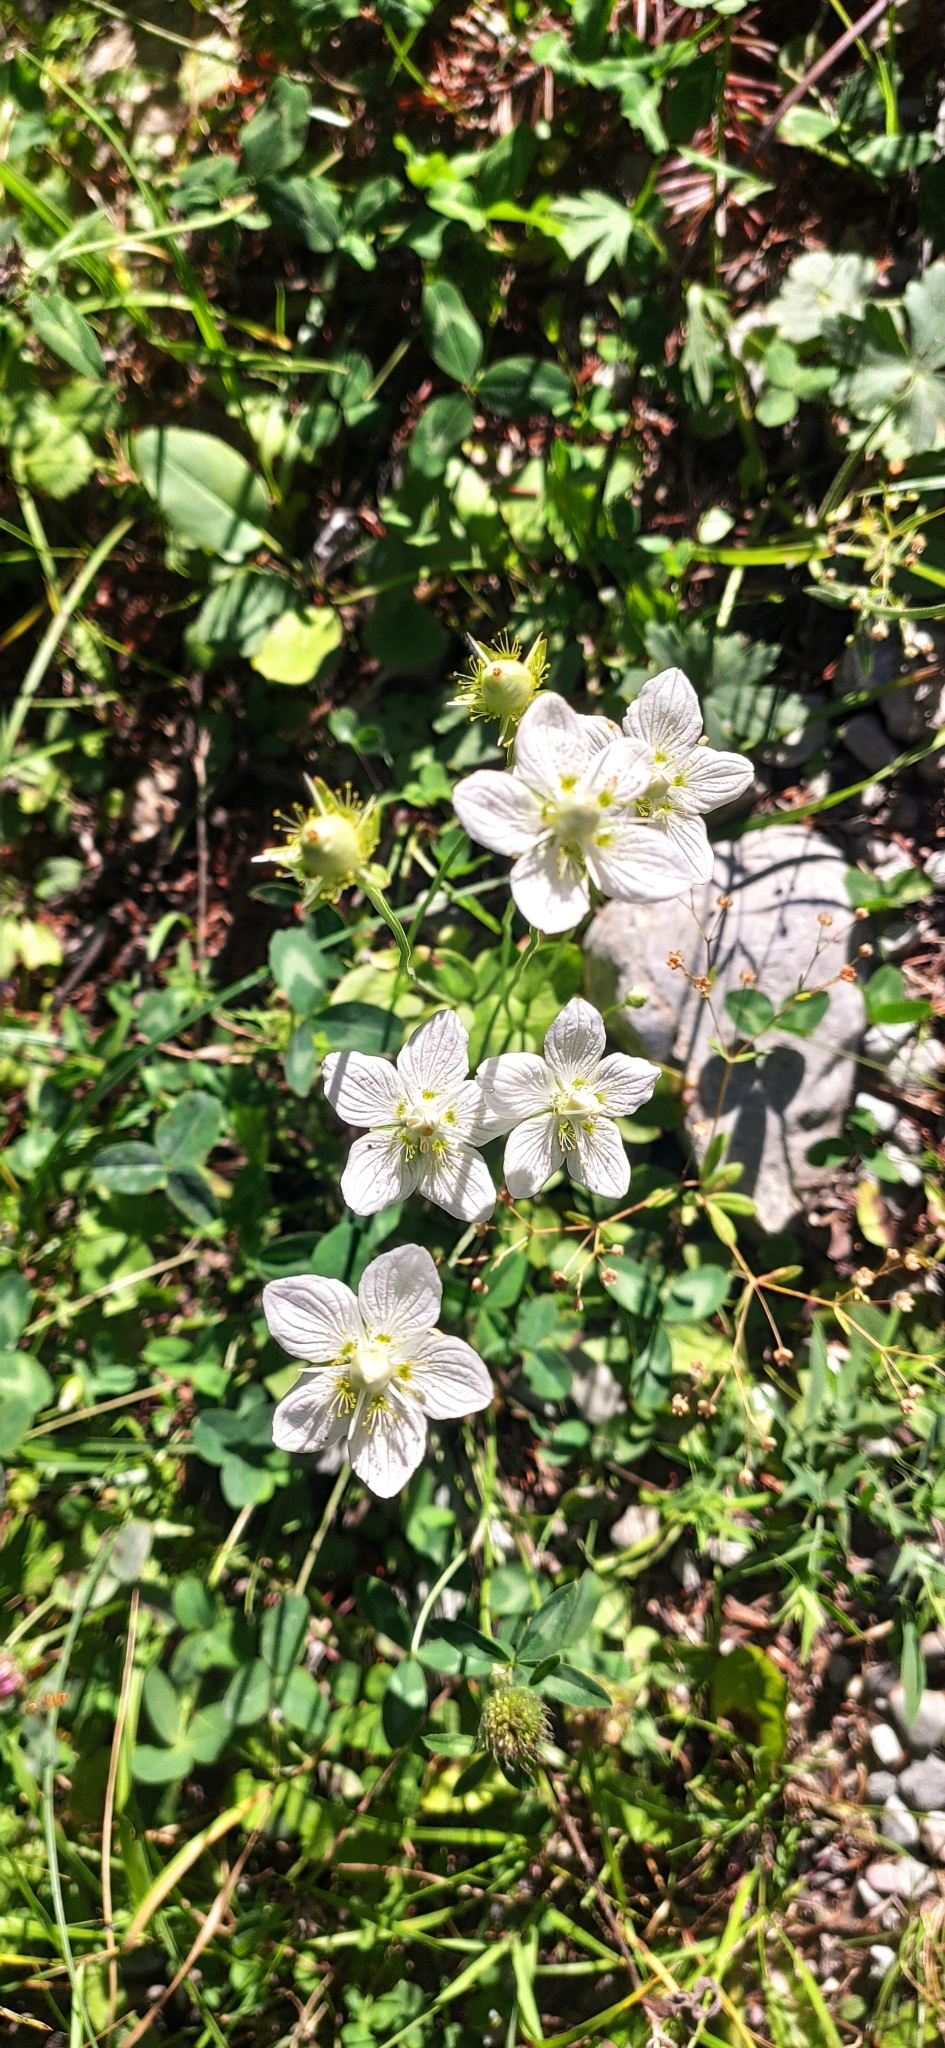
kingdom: Plantae
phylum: Tracheophyta
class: Magnoliopsida
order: Celastrales
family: Parnassiaceae
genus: Parnassia
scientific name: Parnassia palustris
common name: Grass-of-parnassus
